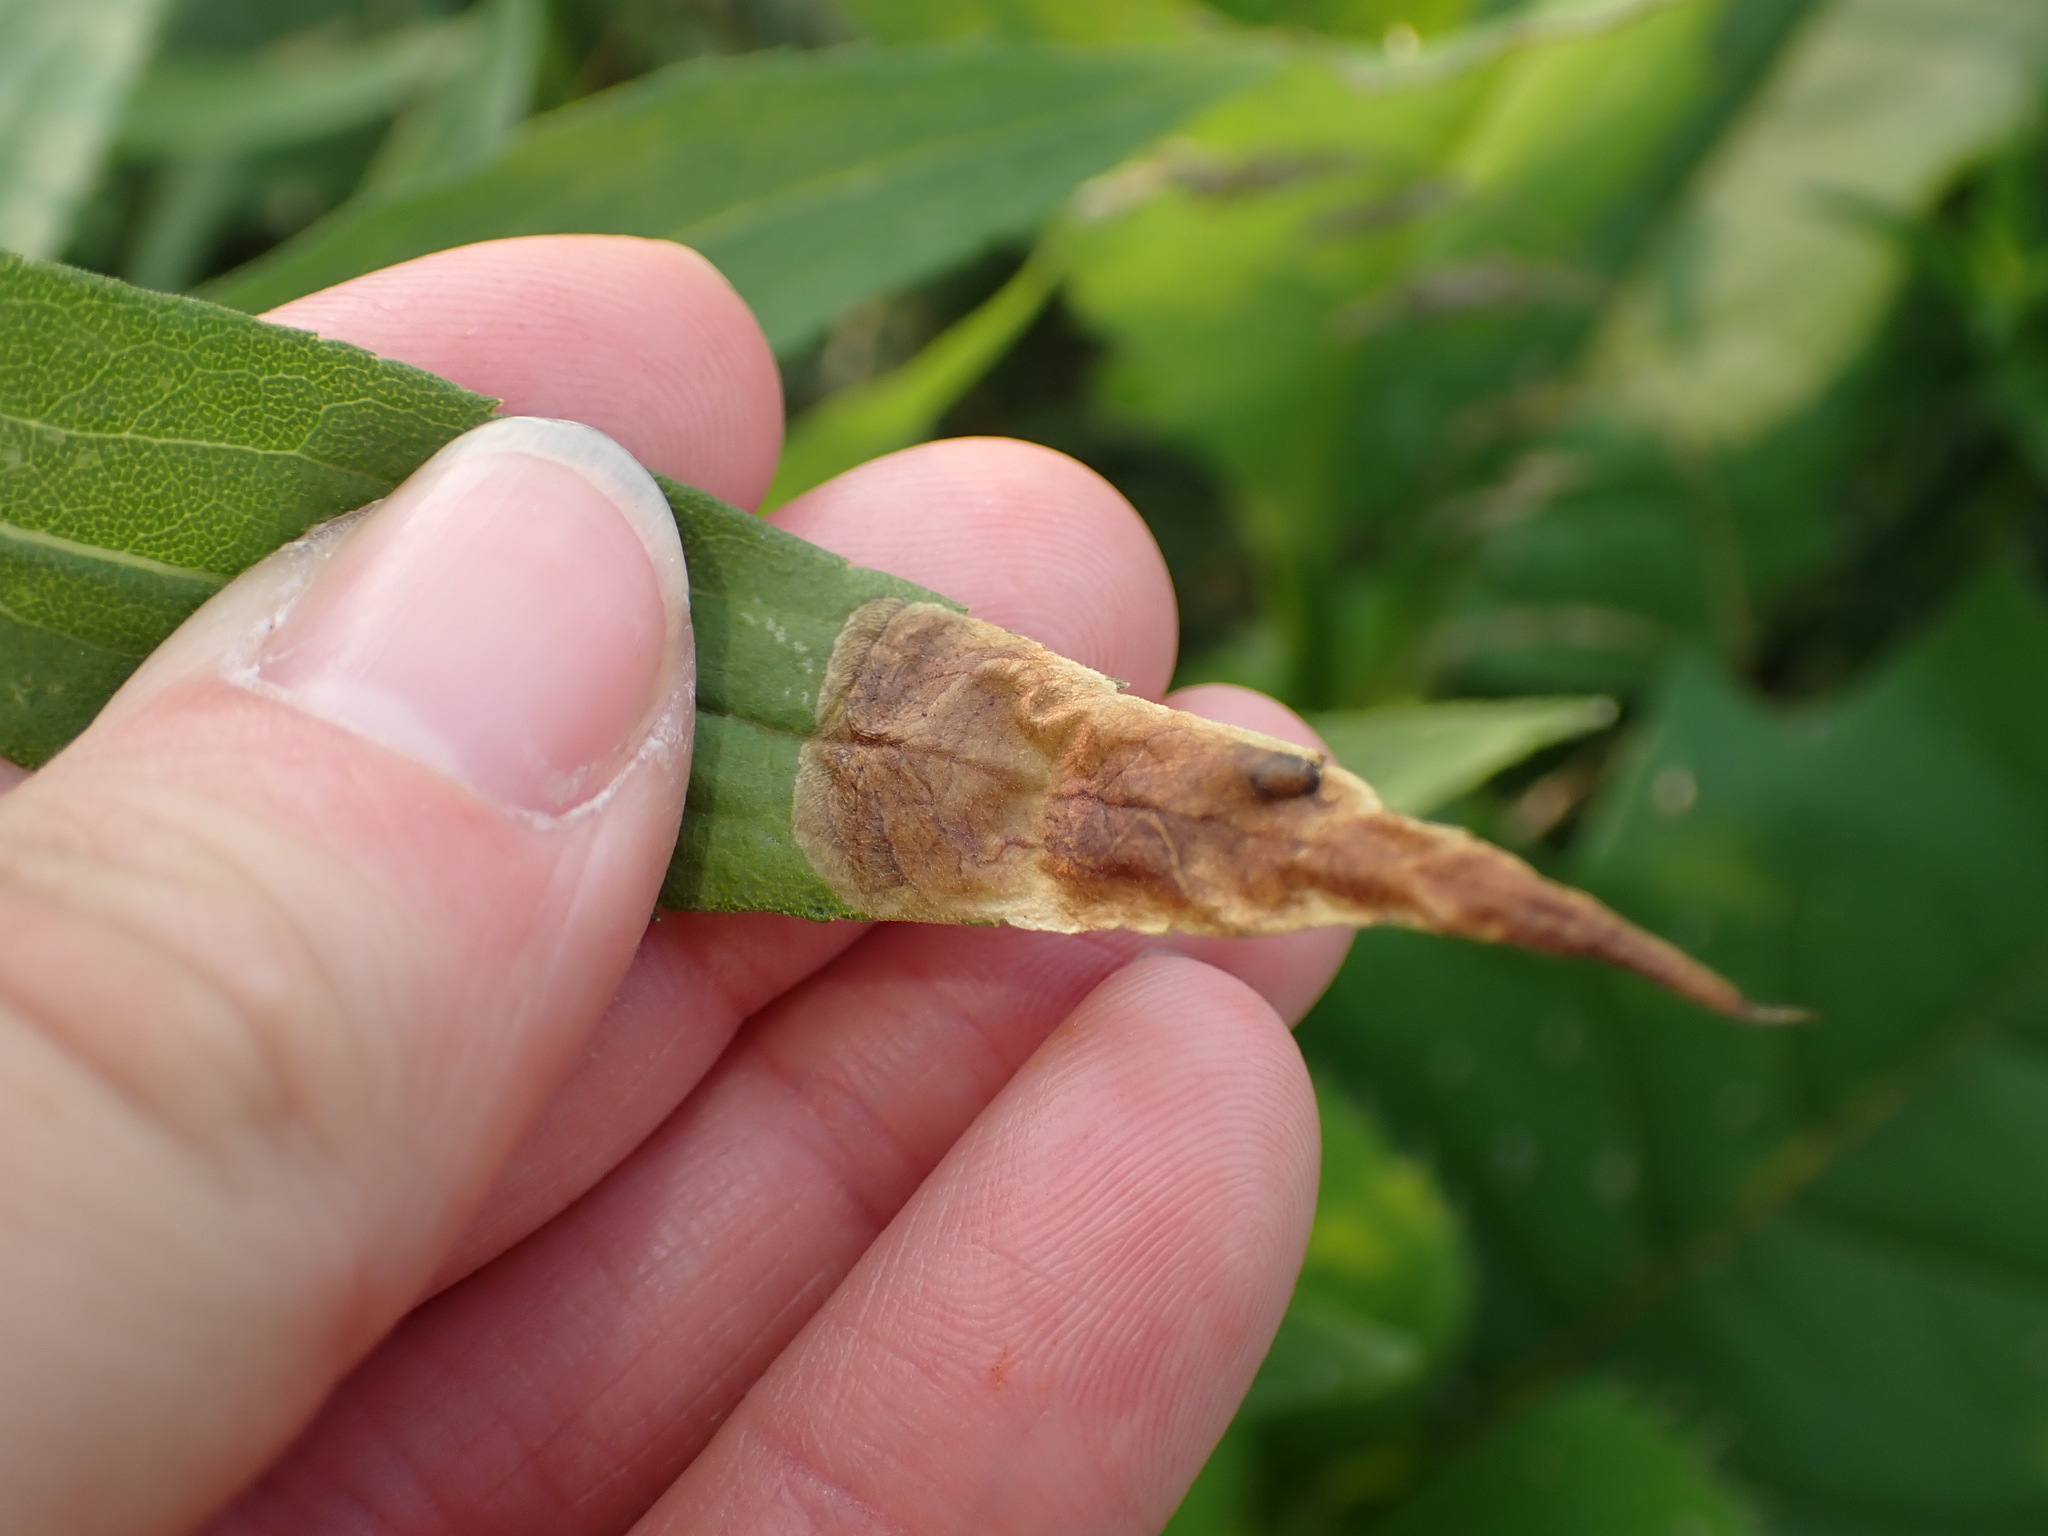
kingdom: Animalia
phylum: Arthropoda
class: Insecta
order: Diptera
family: Agromyzidae
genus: Nemorimyza
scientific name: Nemorimyza posticata
